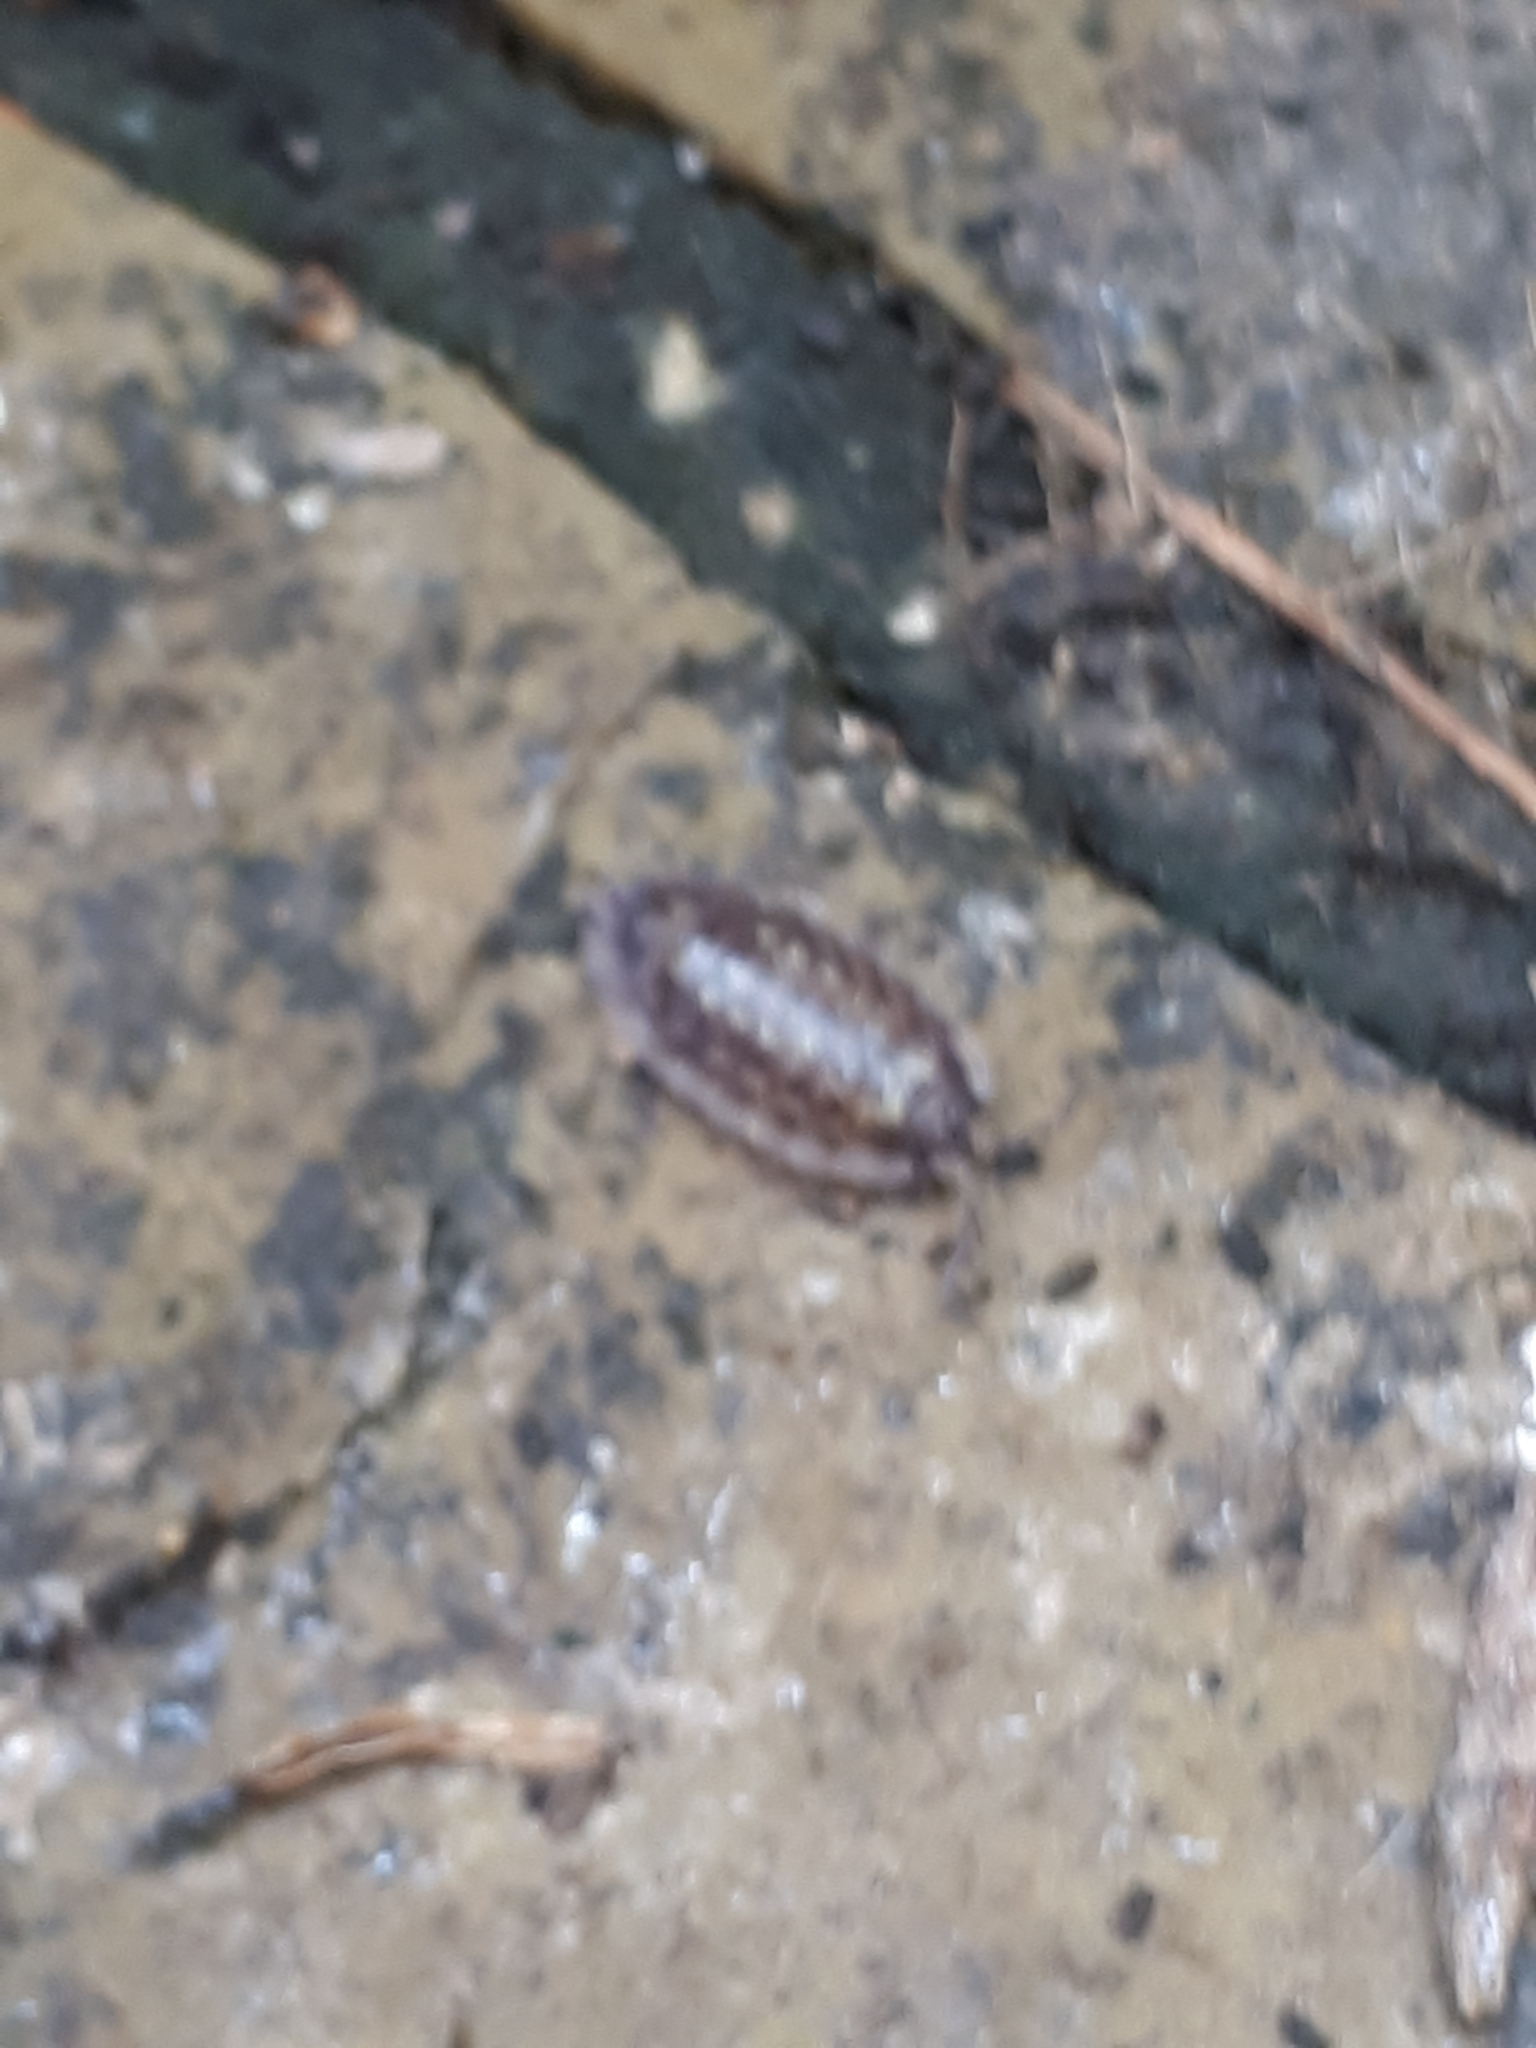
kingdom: Animalia
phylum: Arthropoda
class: Malacostraca
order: Isopoda
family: Oniscidae
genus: Oniscus
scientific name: Oniscus asellus
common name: Common shiny woodlouse
